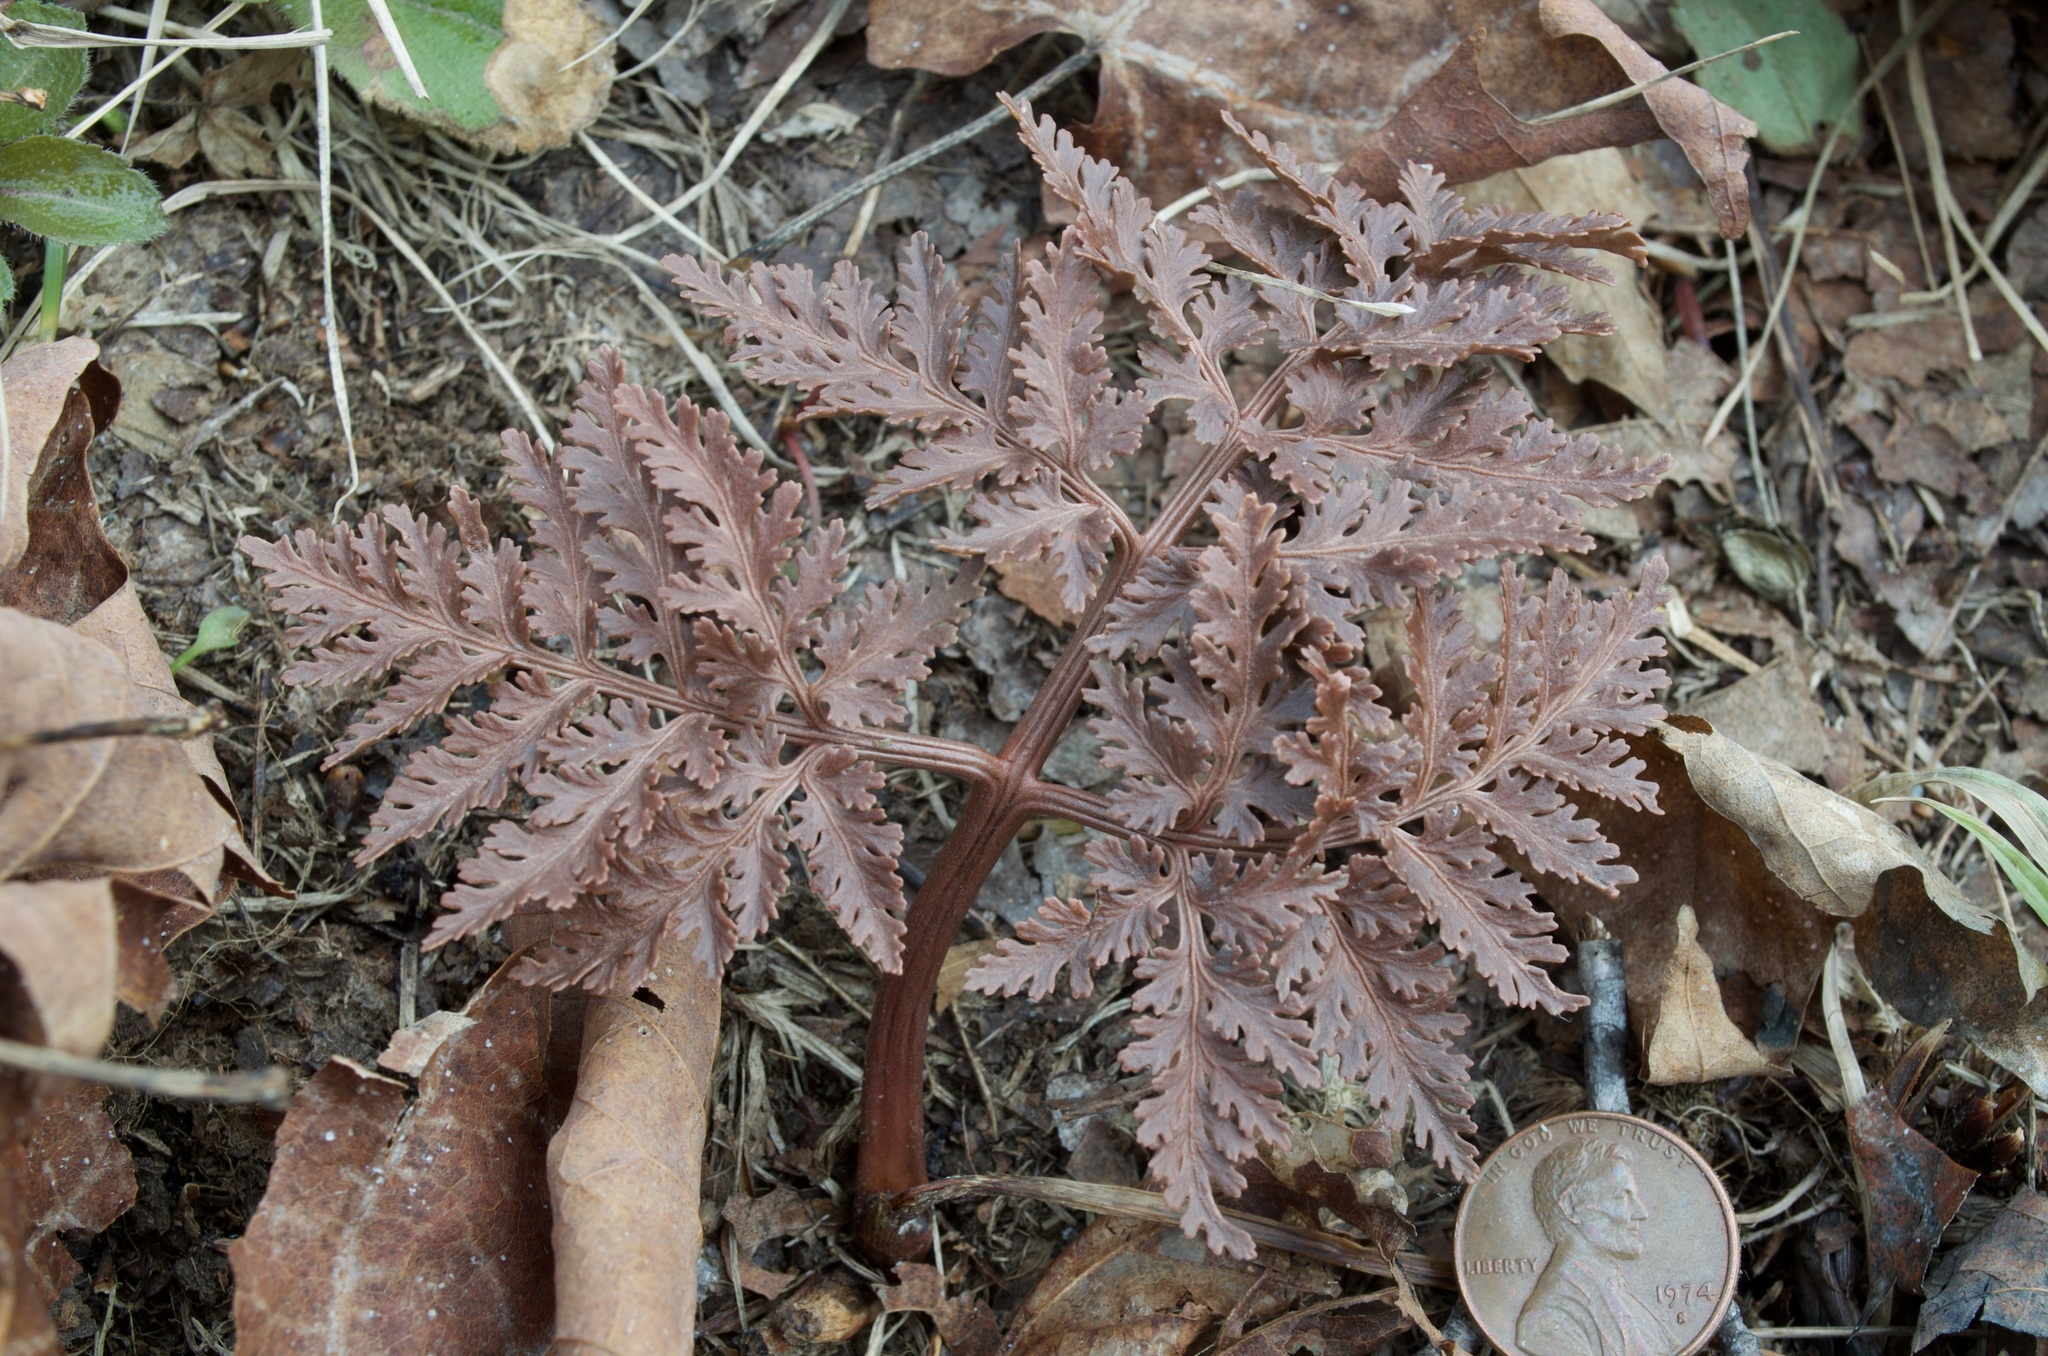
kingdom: Plantae
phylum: Tracheophyta
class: Polypodiopsida
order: Ophioglossales
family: Ophioglossaceae
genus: Sceptridium
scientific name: Sceptridium dissectum
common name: Cut-leaved grapefern
